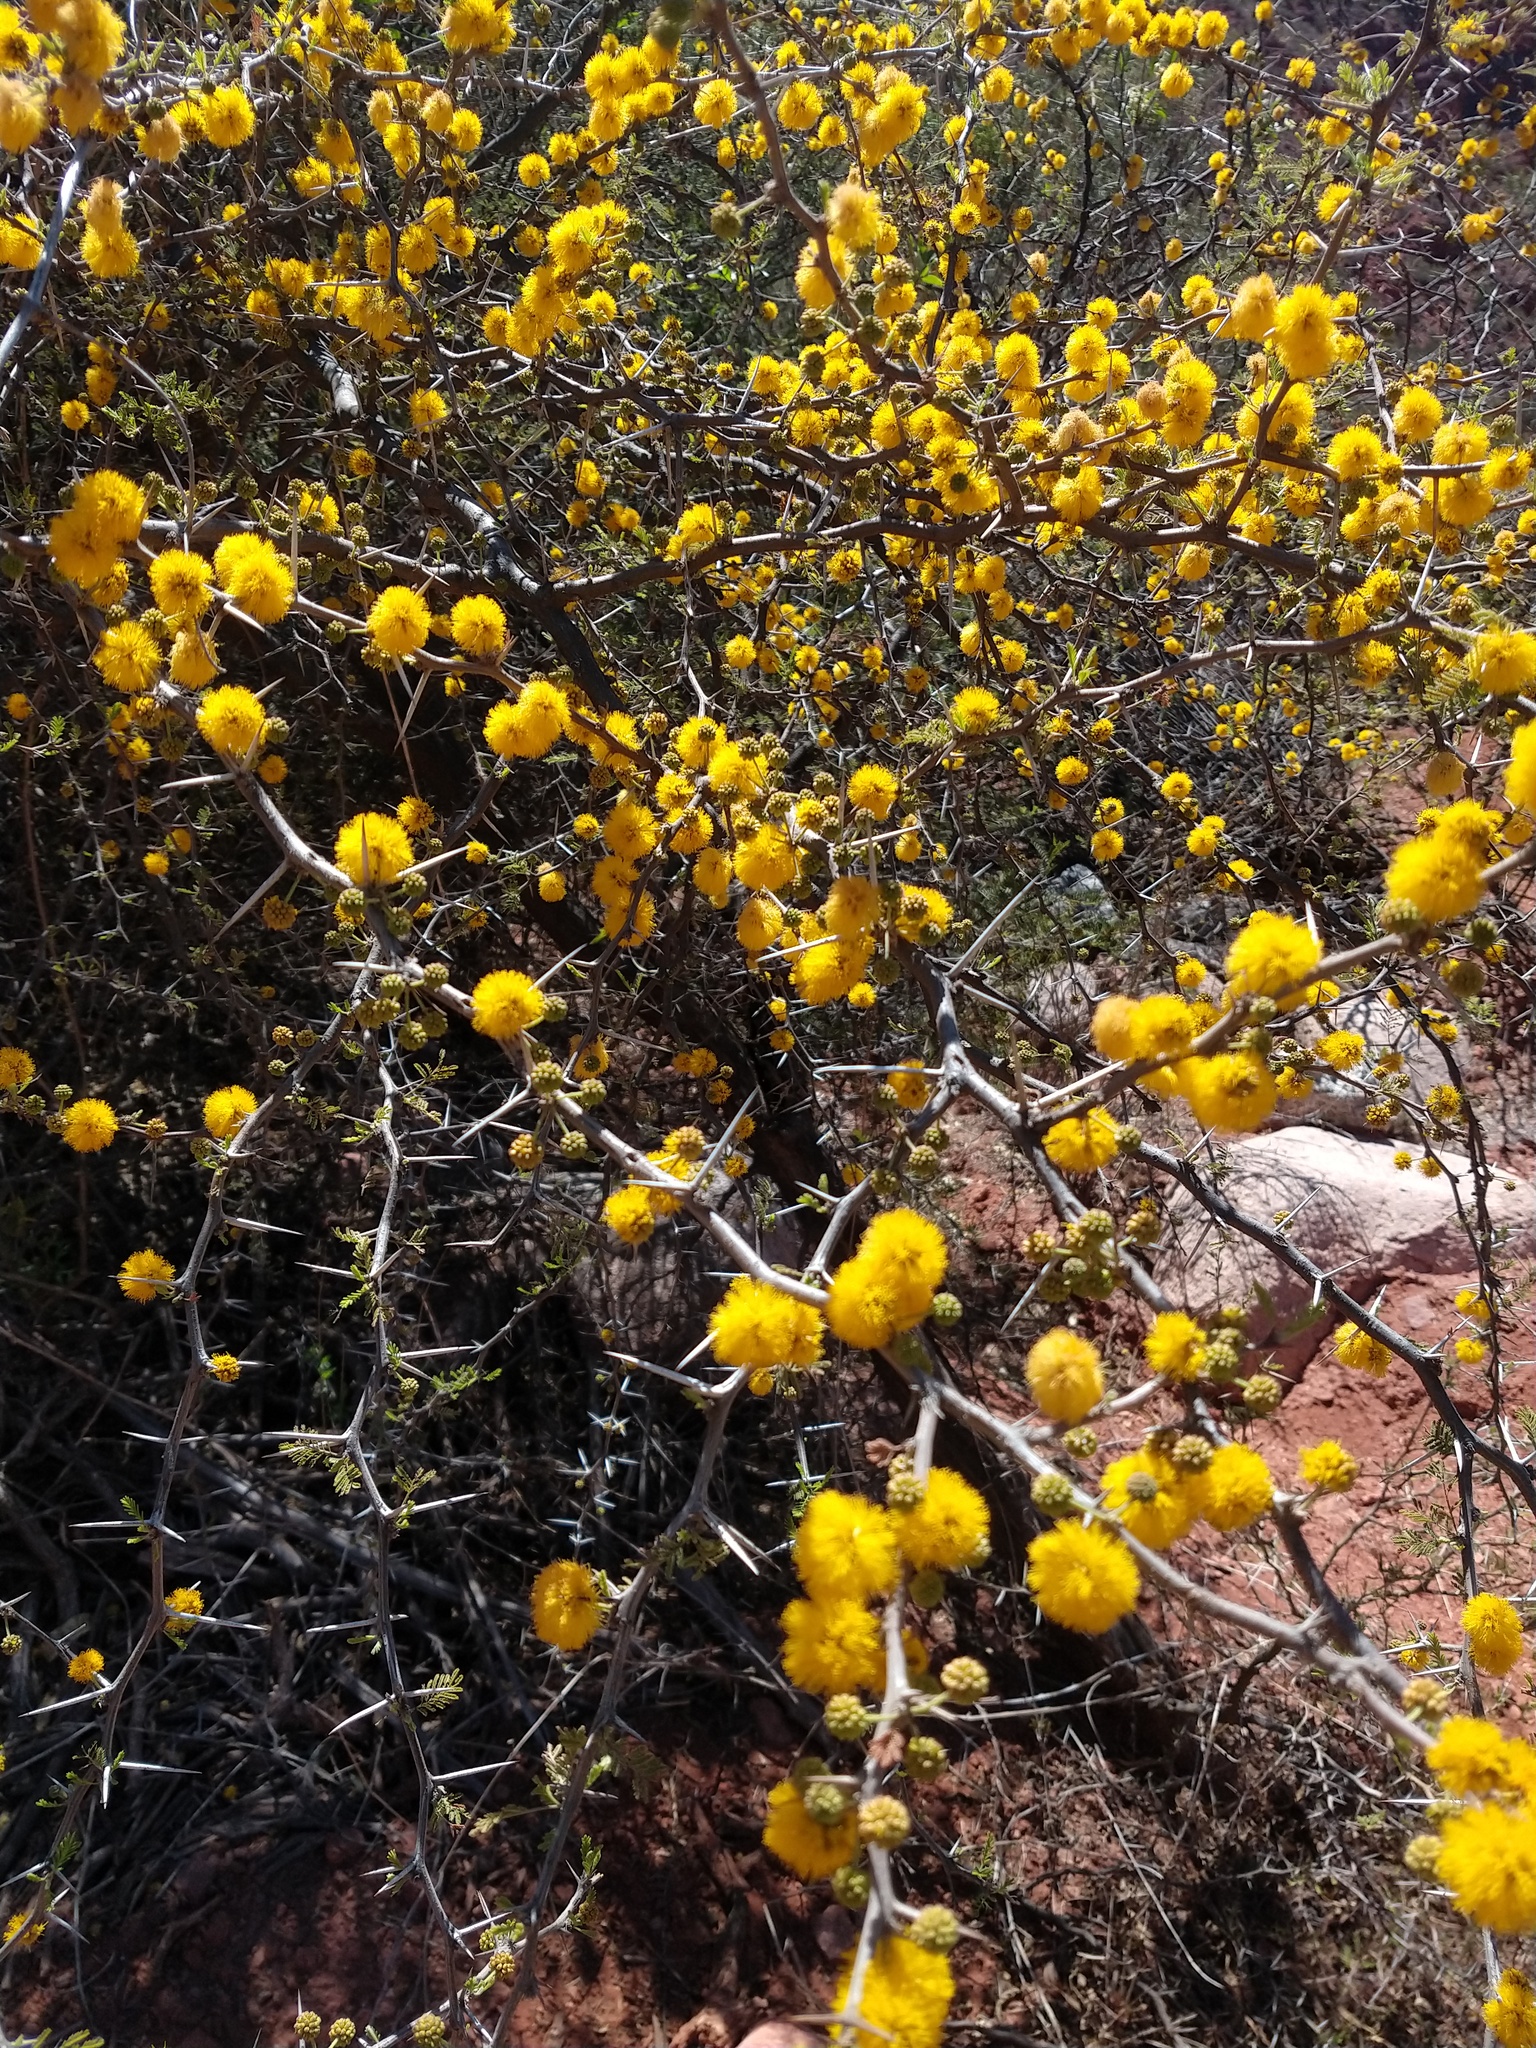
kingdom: Plantae
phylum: Tracheophyta
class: Magnoliopsida
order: Fabales
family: Fabaceae
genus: Vachellia
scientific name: Vachellia caven
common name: Roman cassie
